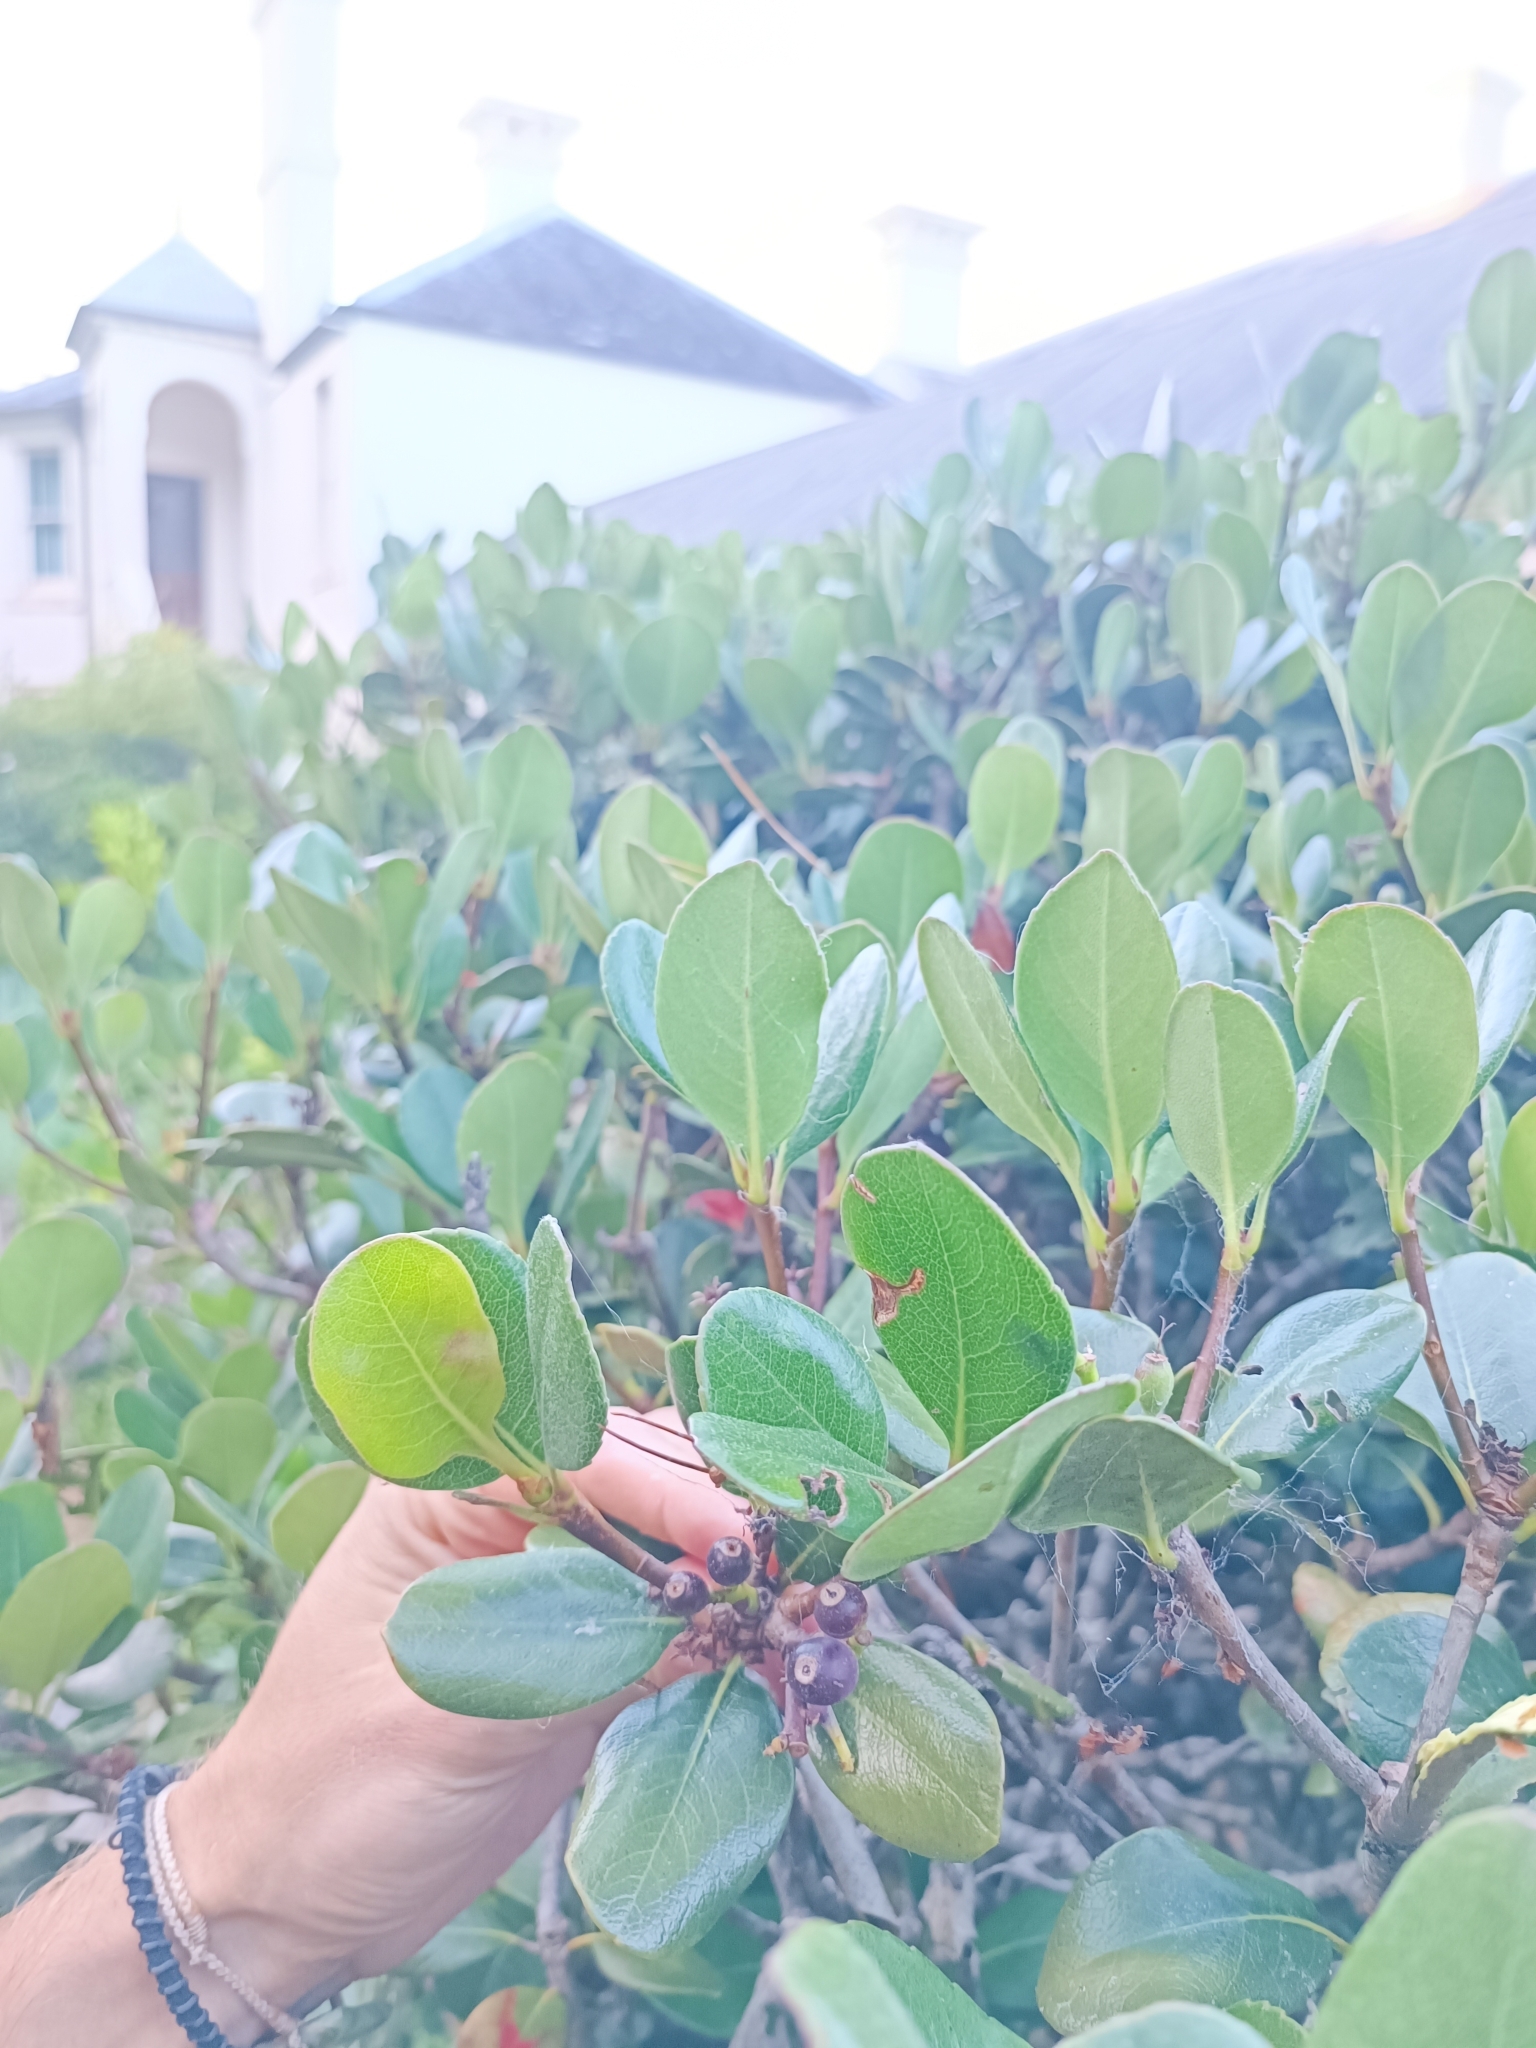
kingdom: Plantae
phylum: Tracheophyta
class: Magnoliopsida
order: Rosales
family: Rosaceae
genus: Rhaphiolepis
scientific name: Rhaphiolepis umbellata
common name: Yedda-hawthorn
